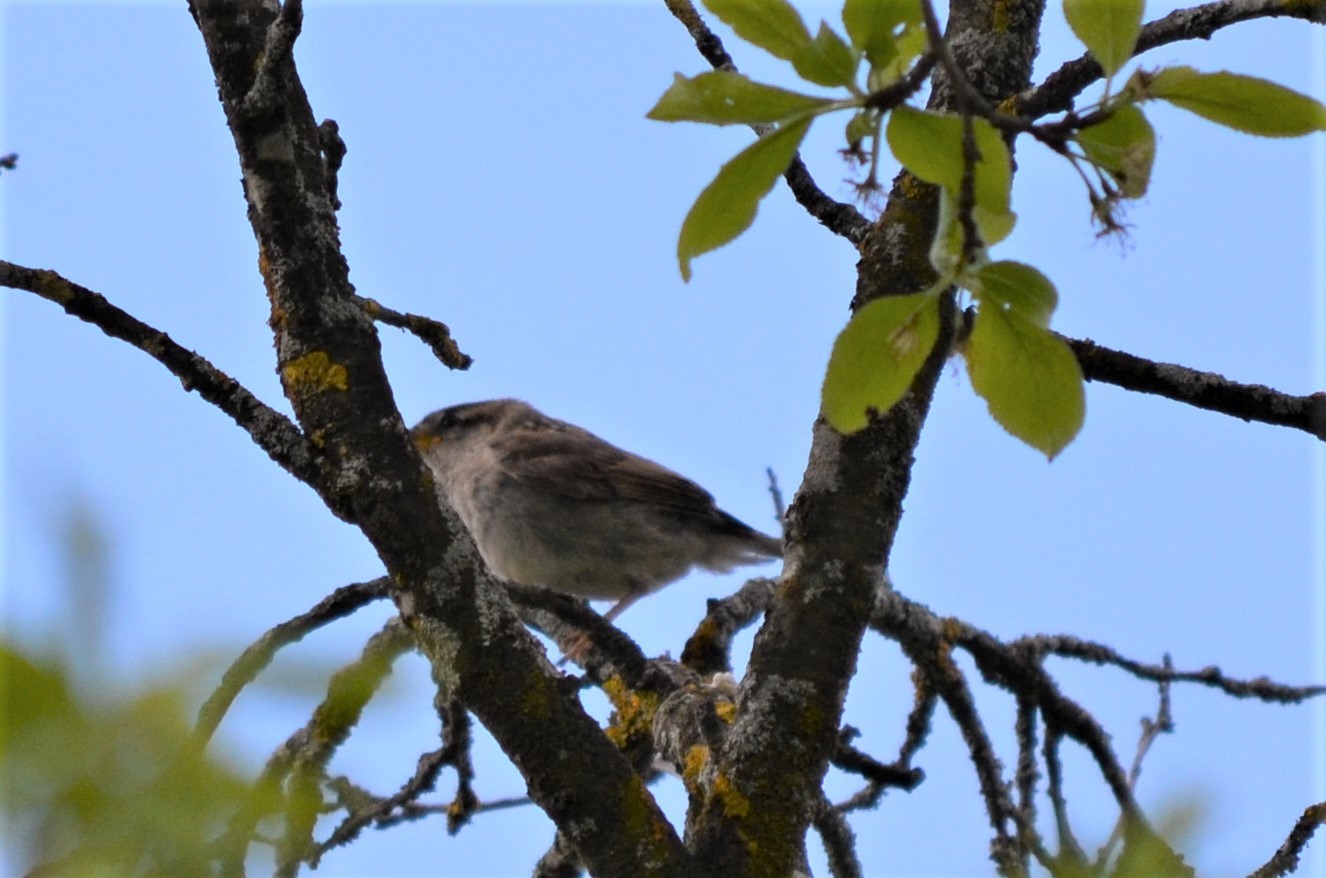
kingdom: Animalia
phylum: Chordata
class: Aves
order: Passeriformes
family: Passeridae
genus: Passer
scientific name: Passer domesticus
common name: House sparrow
